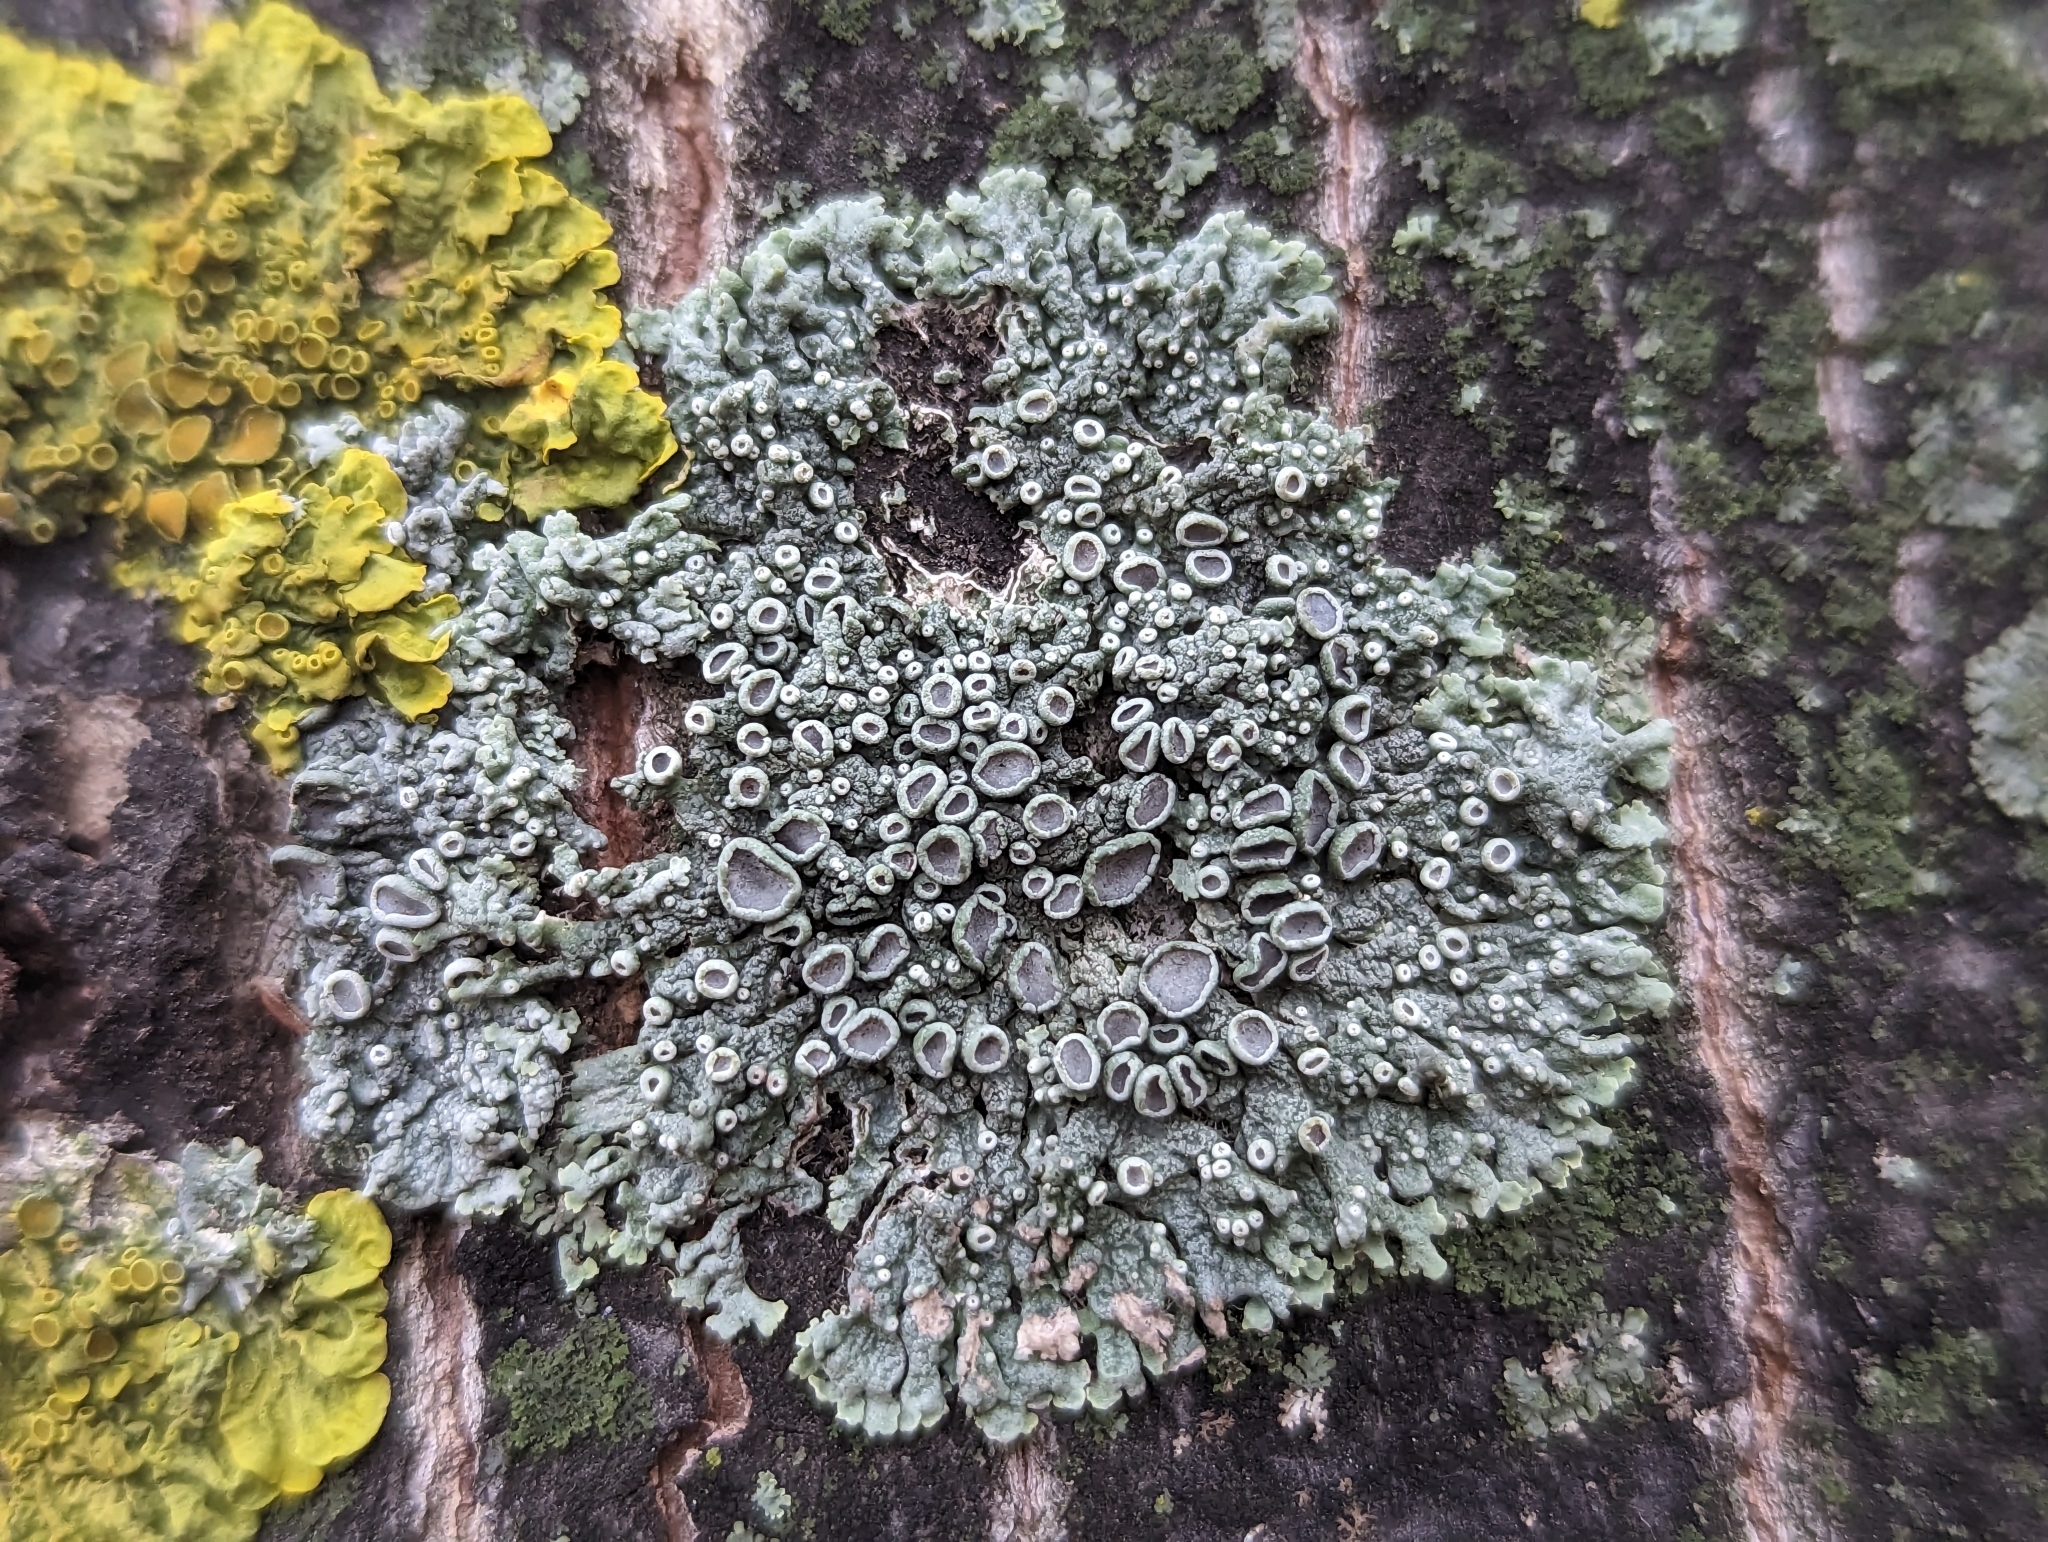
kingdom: Fungi
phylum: Ascomycota
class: Lecanoromycetes
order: Caliciales
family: Physciaceae
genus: Physcia
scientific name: Physcia aipolia
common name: Hoary rosette lichen
